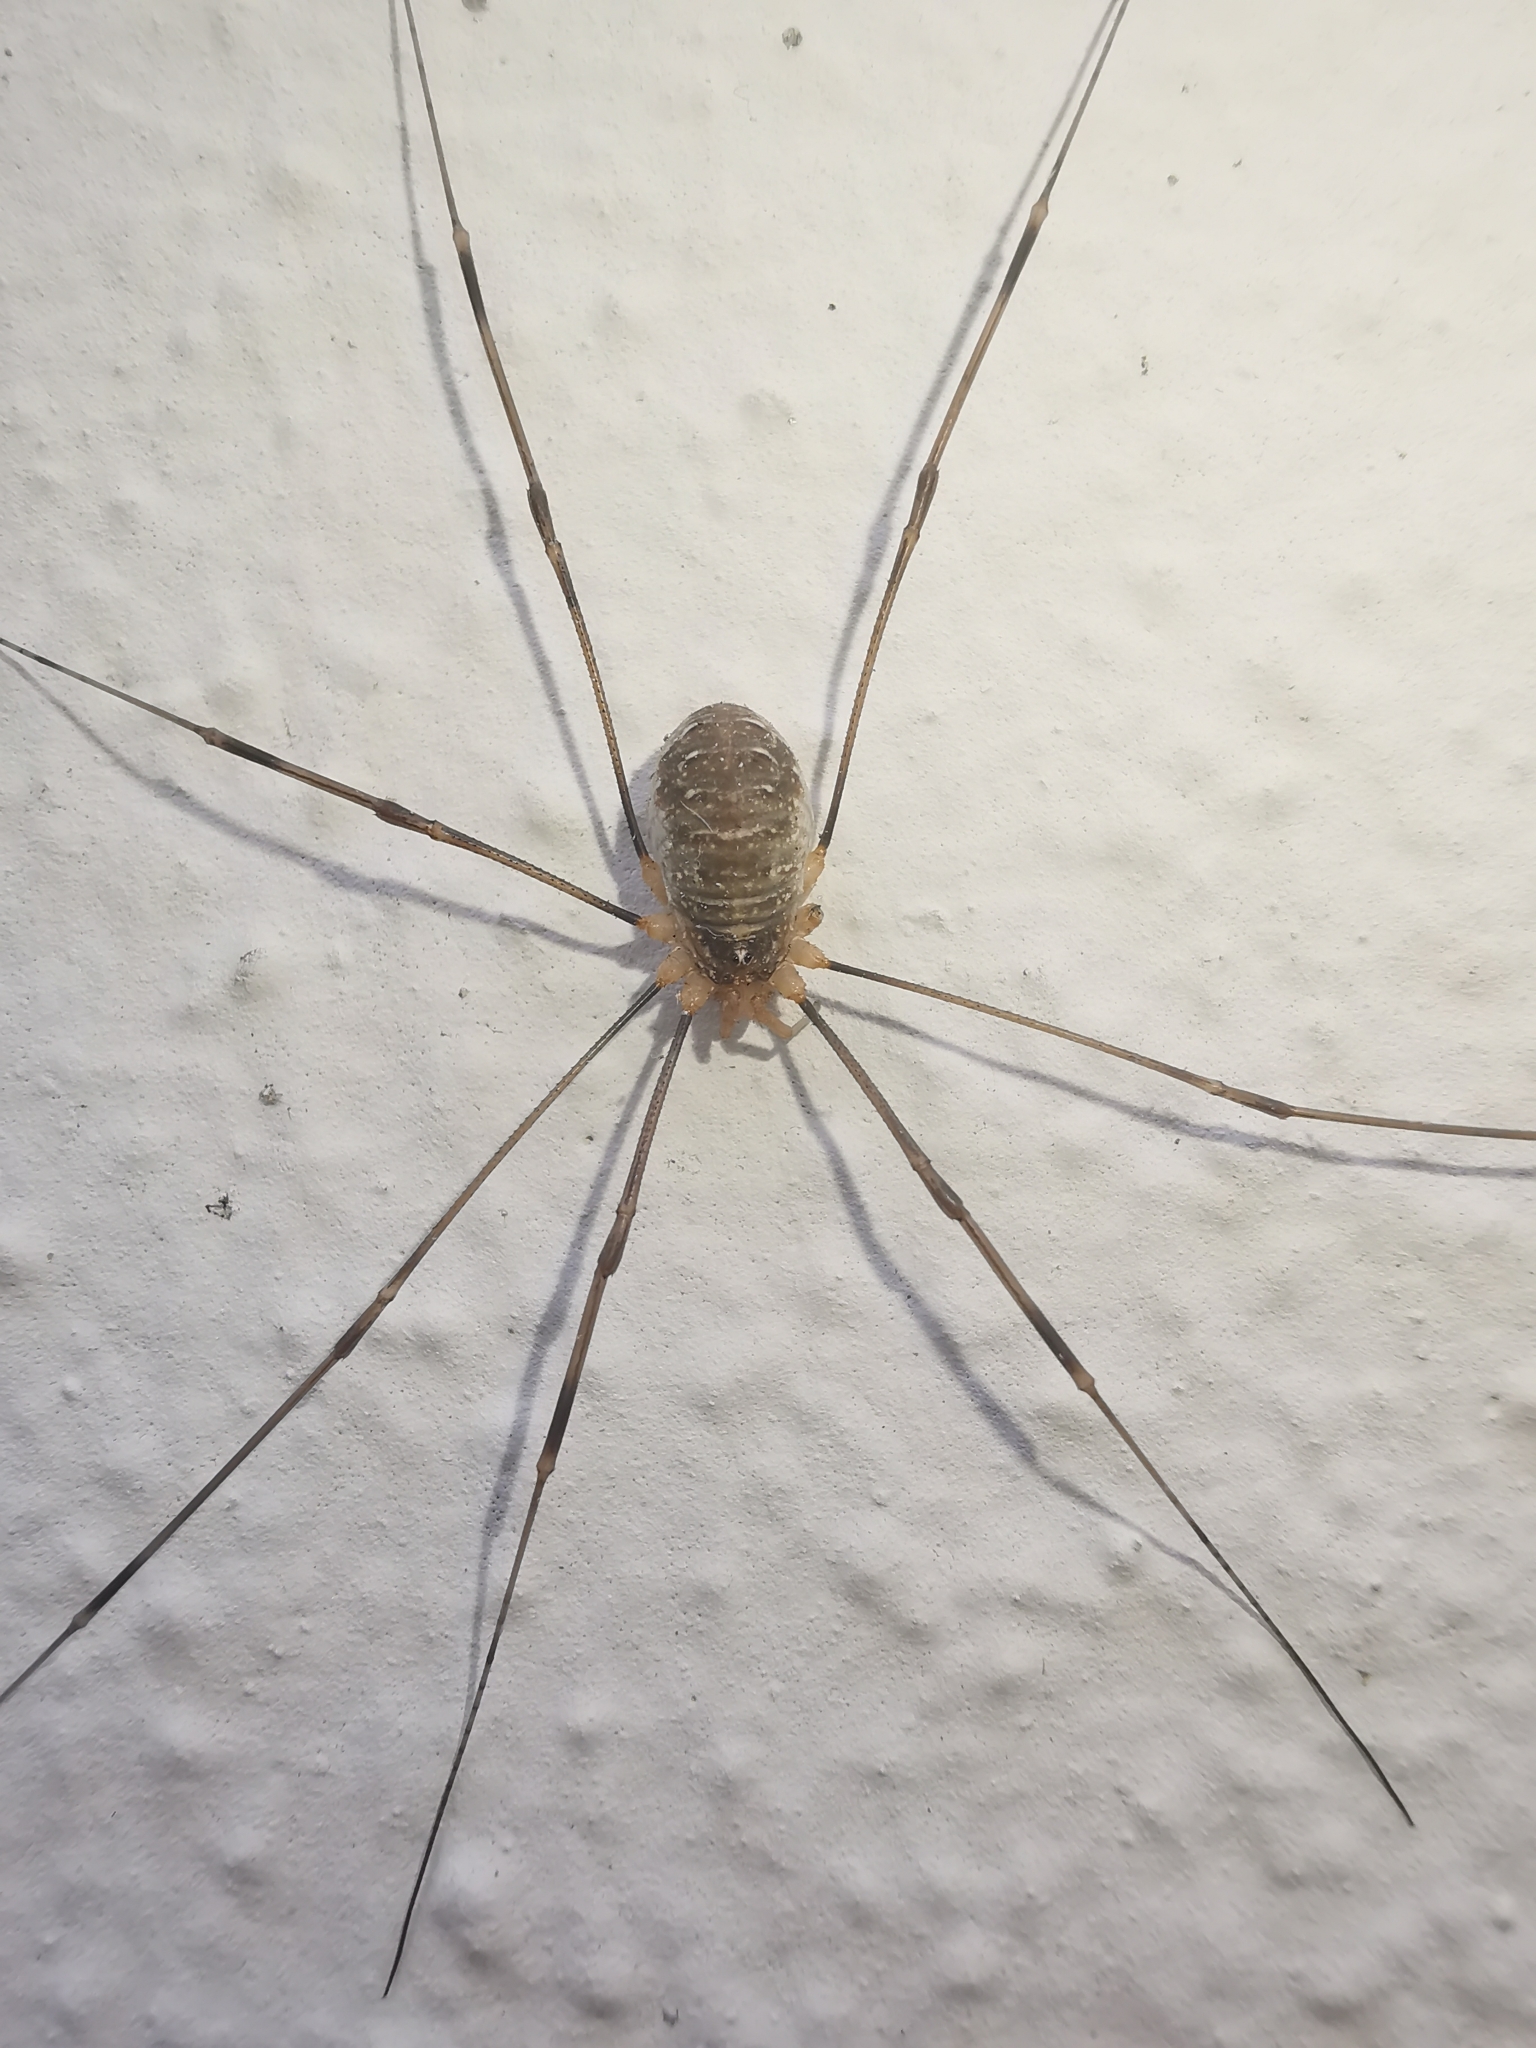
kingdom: Animalia
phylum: Arthropoda
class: Arachnida
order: Opiliones
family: Phalangiidae
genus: Opilio
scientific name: Opilio canestrinii
